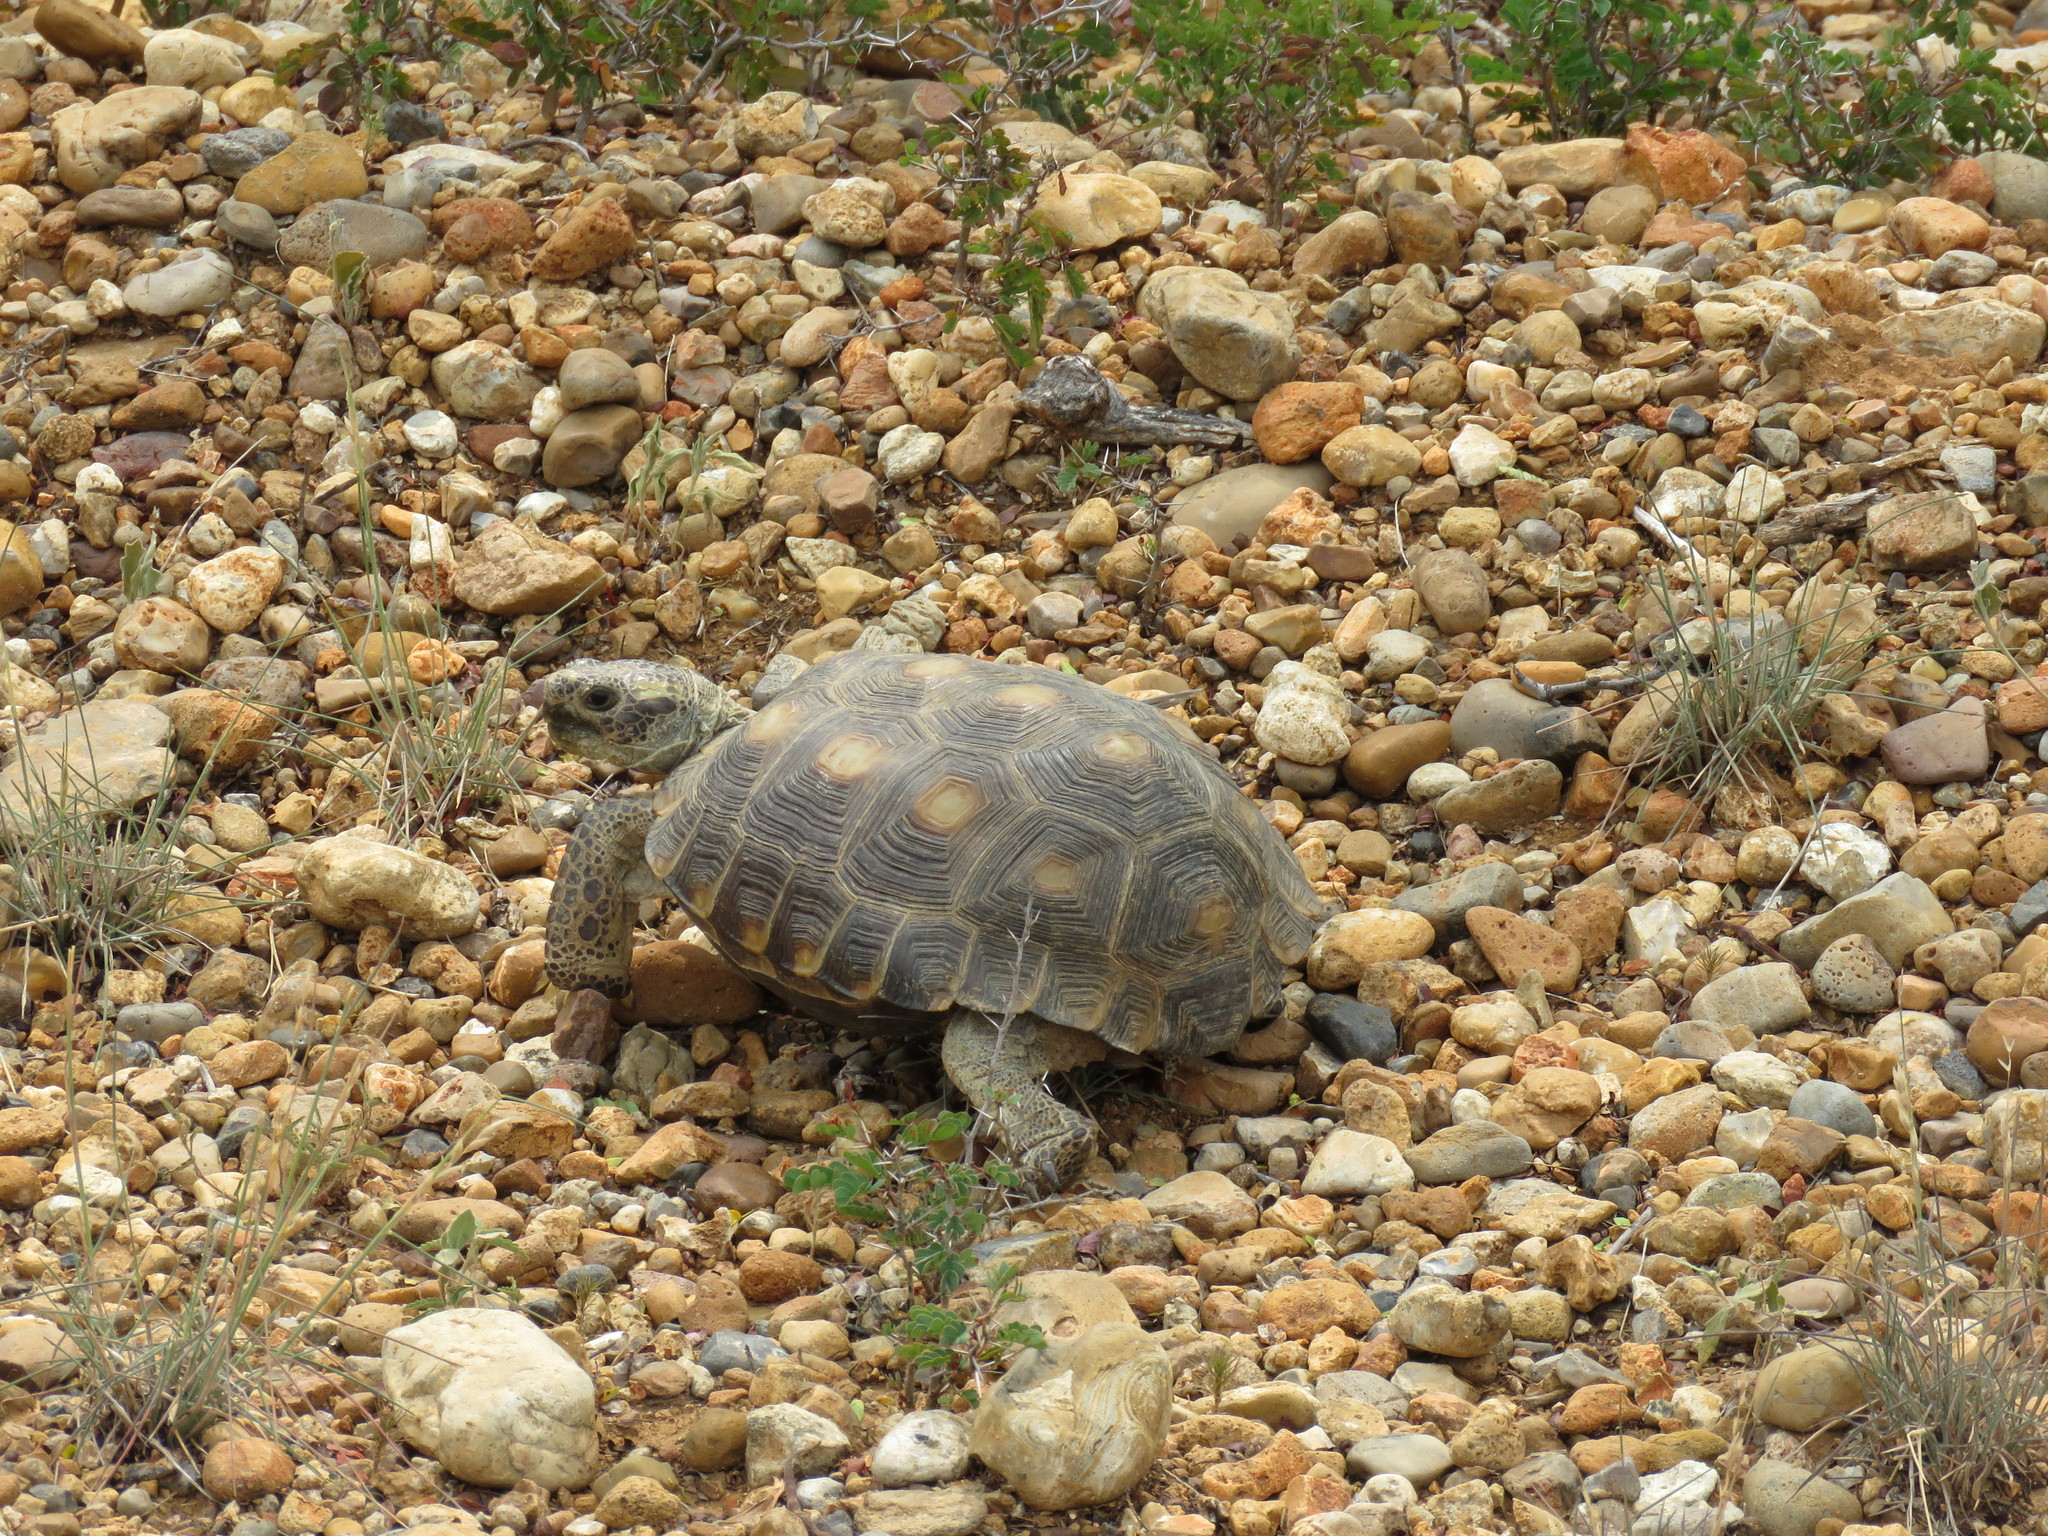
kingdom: Animalia
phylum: Chordata
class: Testudines
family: Testudinidae
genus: Gopherus
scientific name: Gopherus berlandieri
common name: Texas (gopher )tortoise
